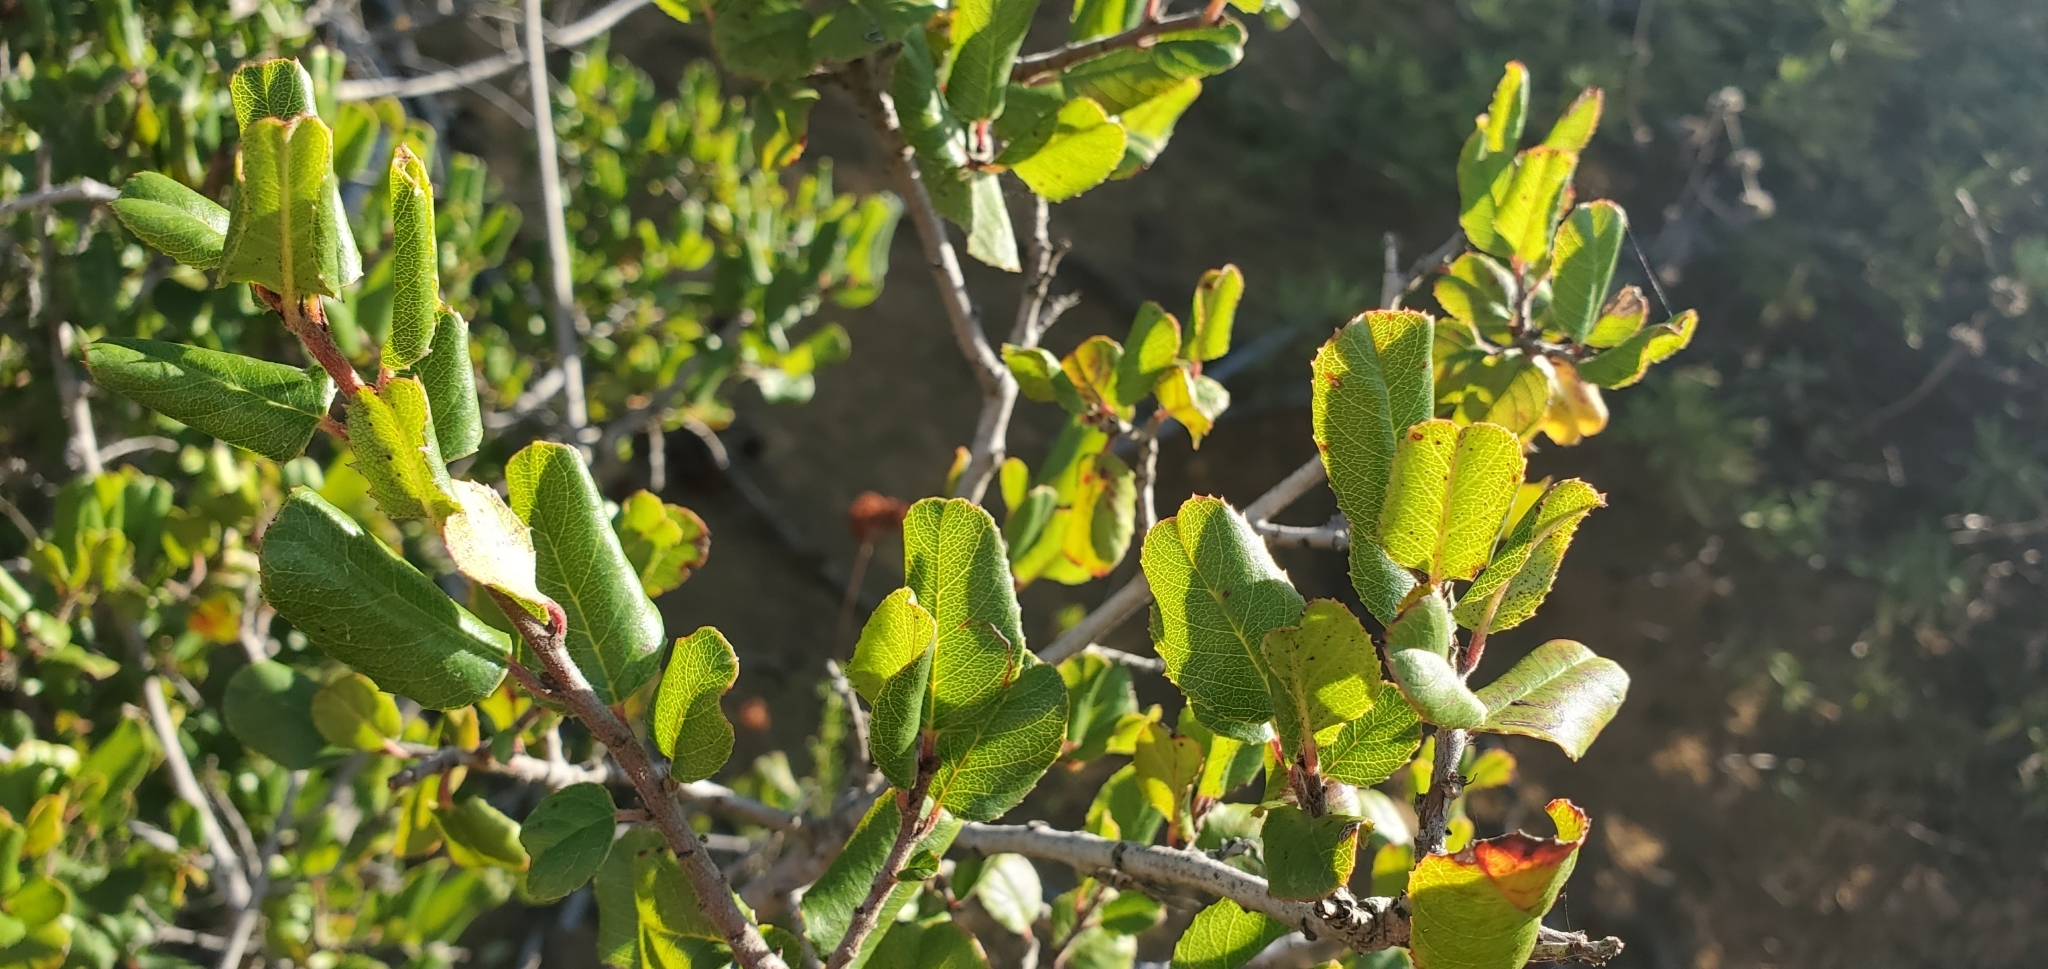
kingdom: Plantae
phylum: Tracheophyta
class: Magnoliopsida
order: Rosales
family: Rhamnaceae
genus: Endotropis
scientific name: Endotropis crocea
